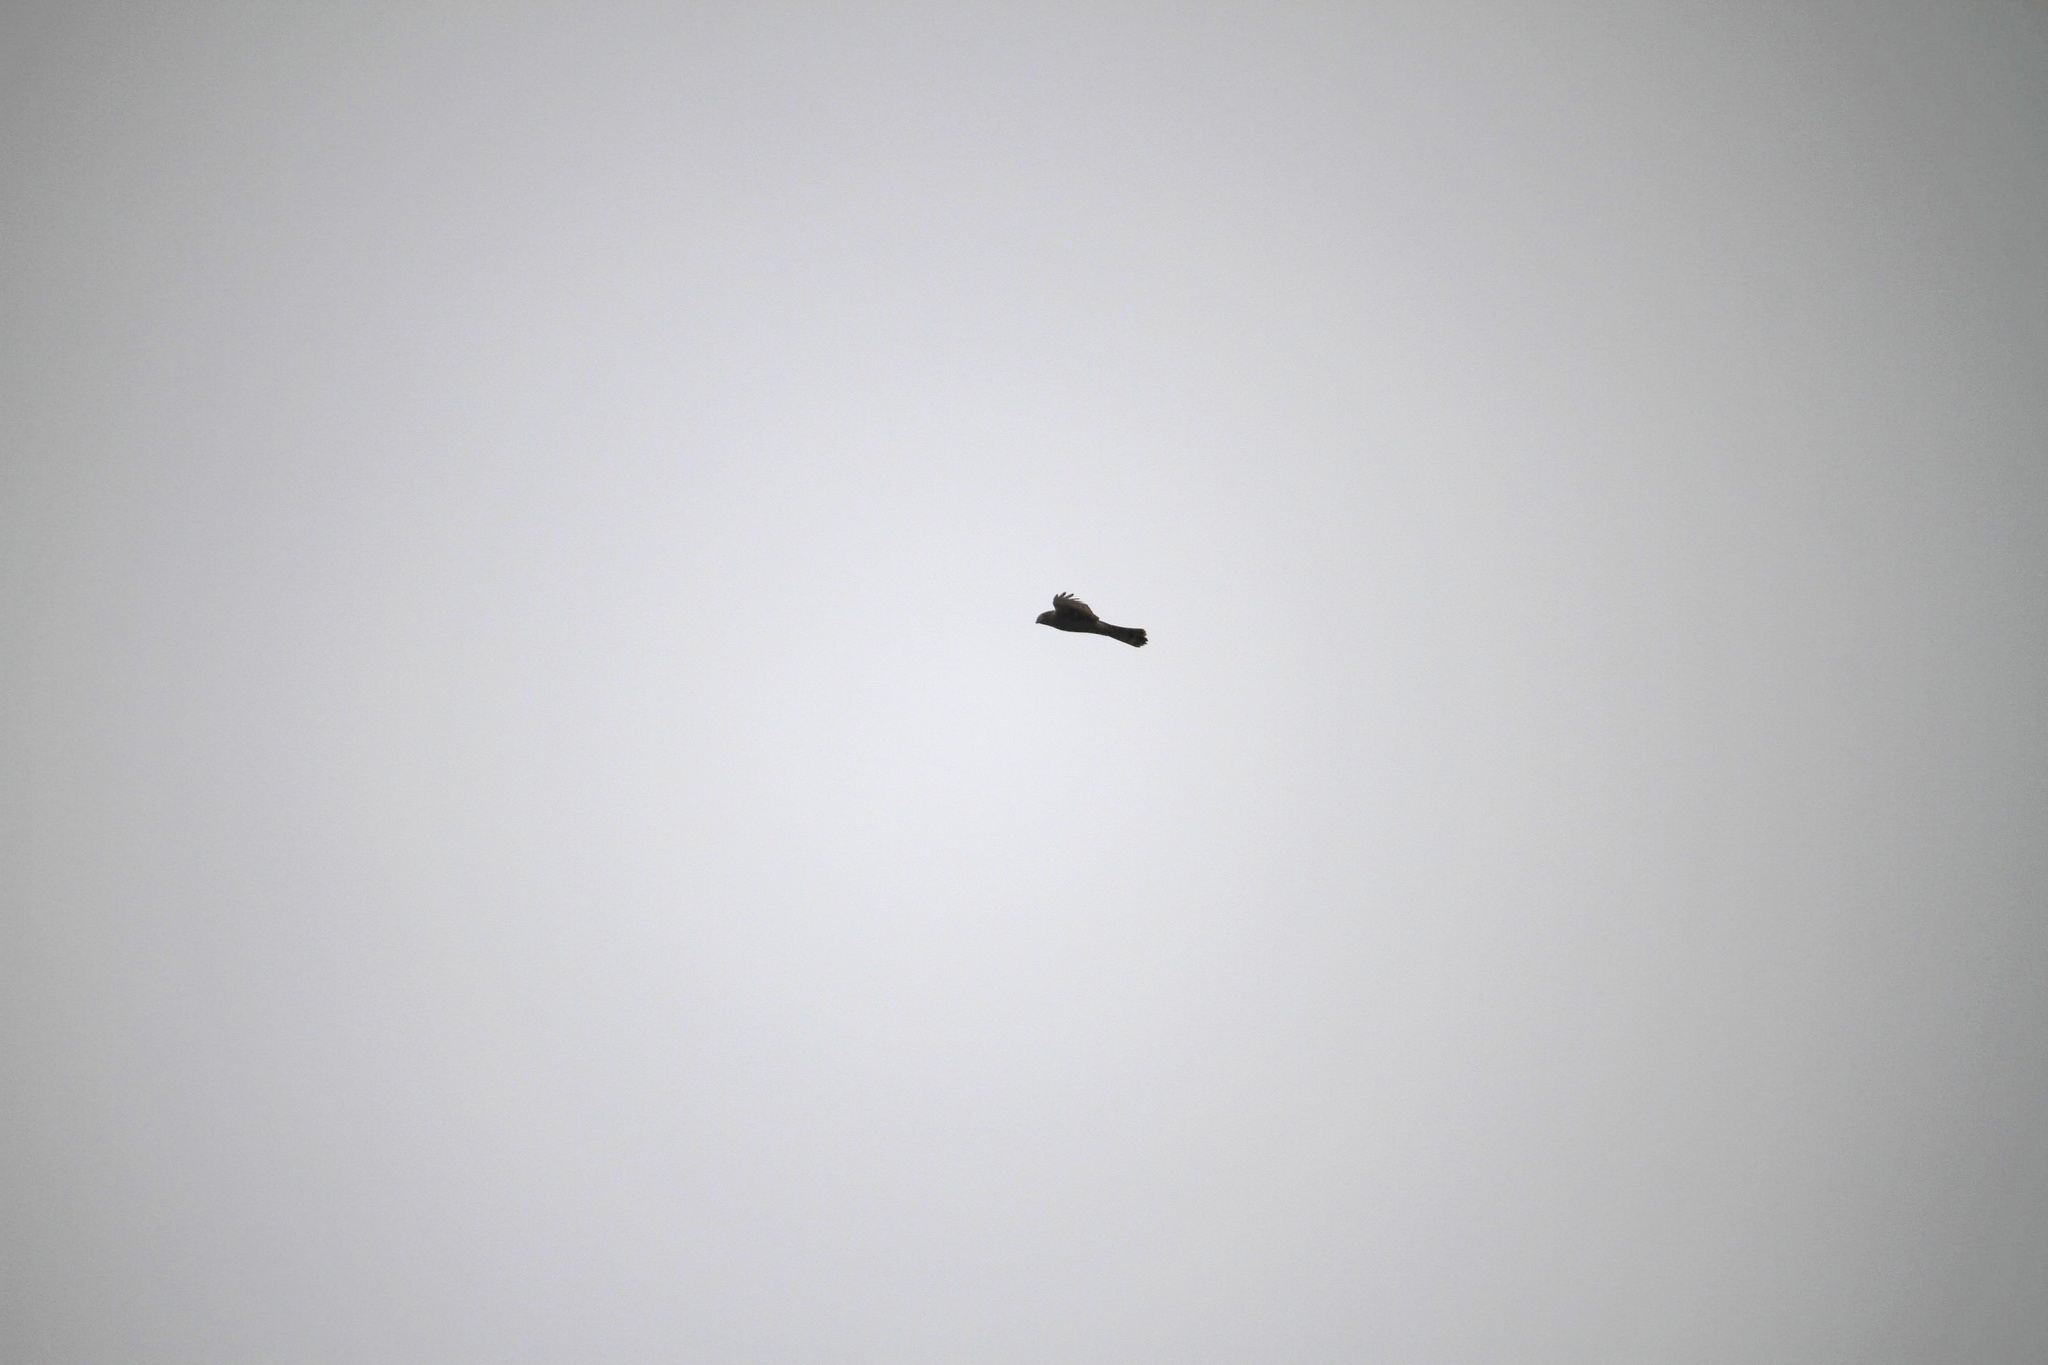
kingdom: Animalia
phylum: Chordata
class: Aves
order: Accipitriformes
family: Accipitridae
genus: Accipiter
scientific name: Accipiter nisus
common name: Eurasian sparrowhawk
